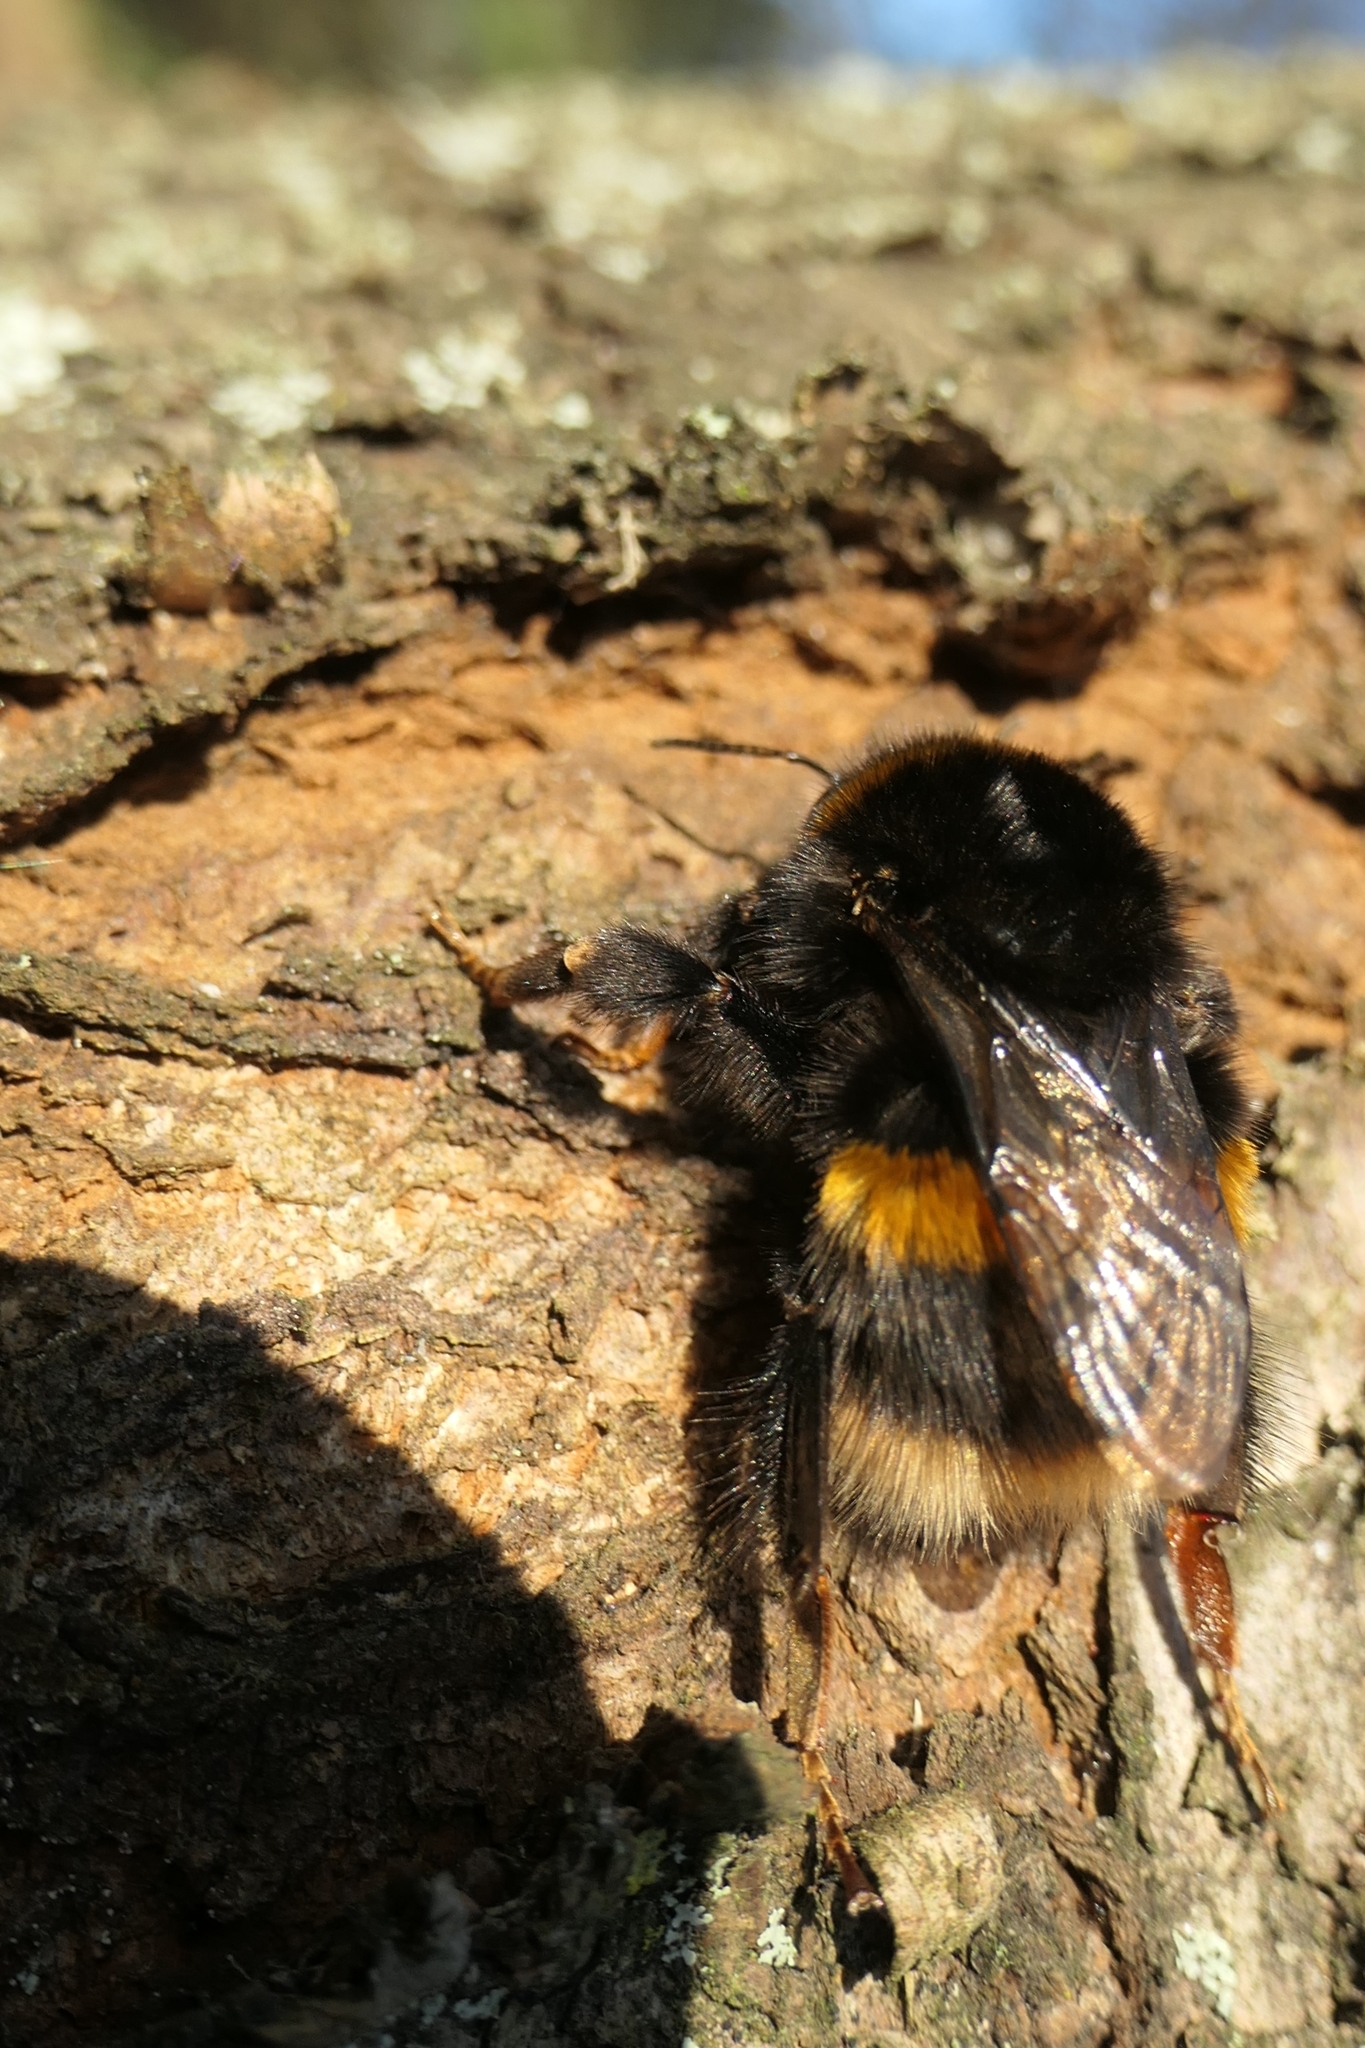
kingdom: Animalia
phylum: Arthropoda
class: Insecta
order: Hymenoptera
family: Apidae
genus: Bombus
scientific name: Bombus terrestris
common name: Buff-tailed bumblebee
